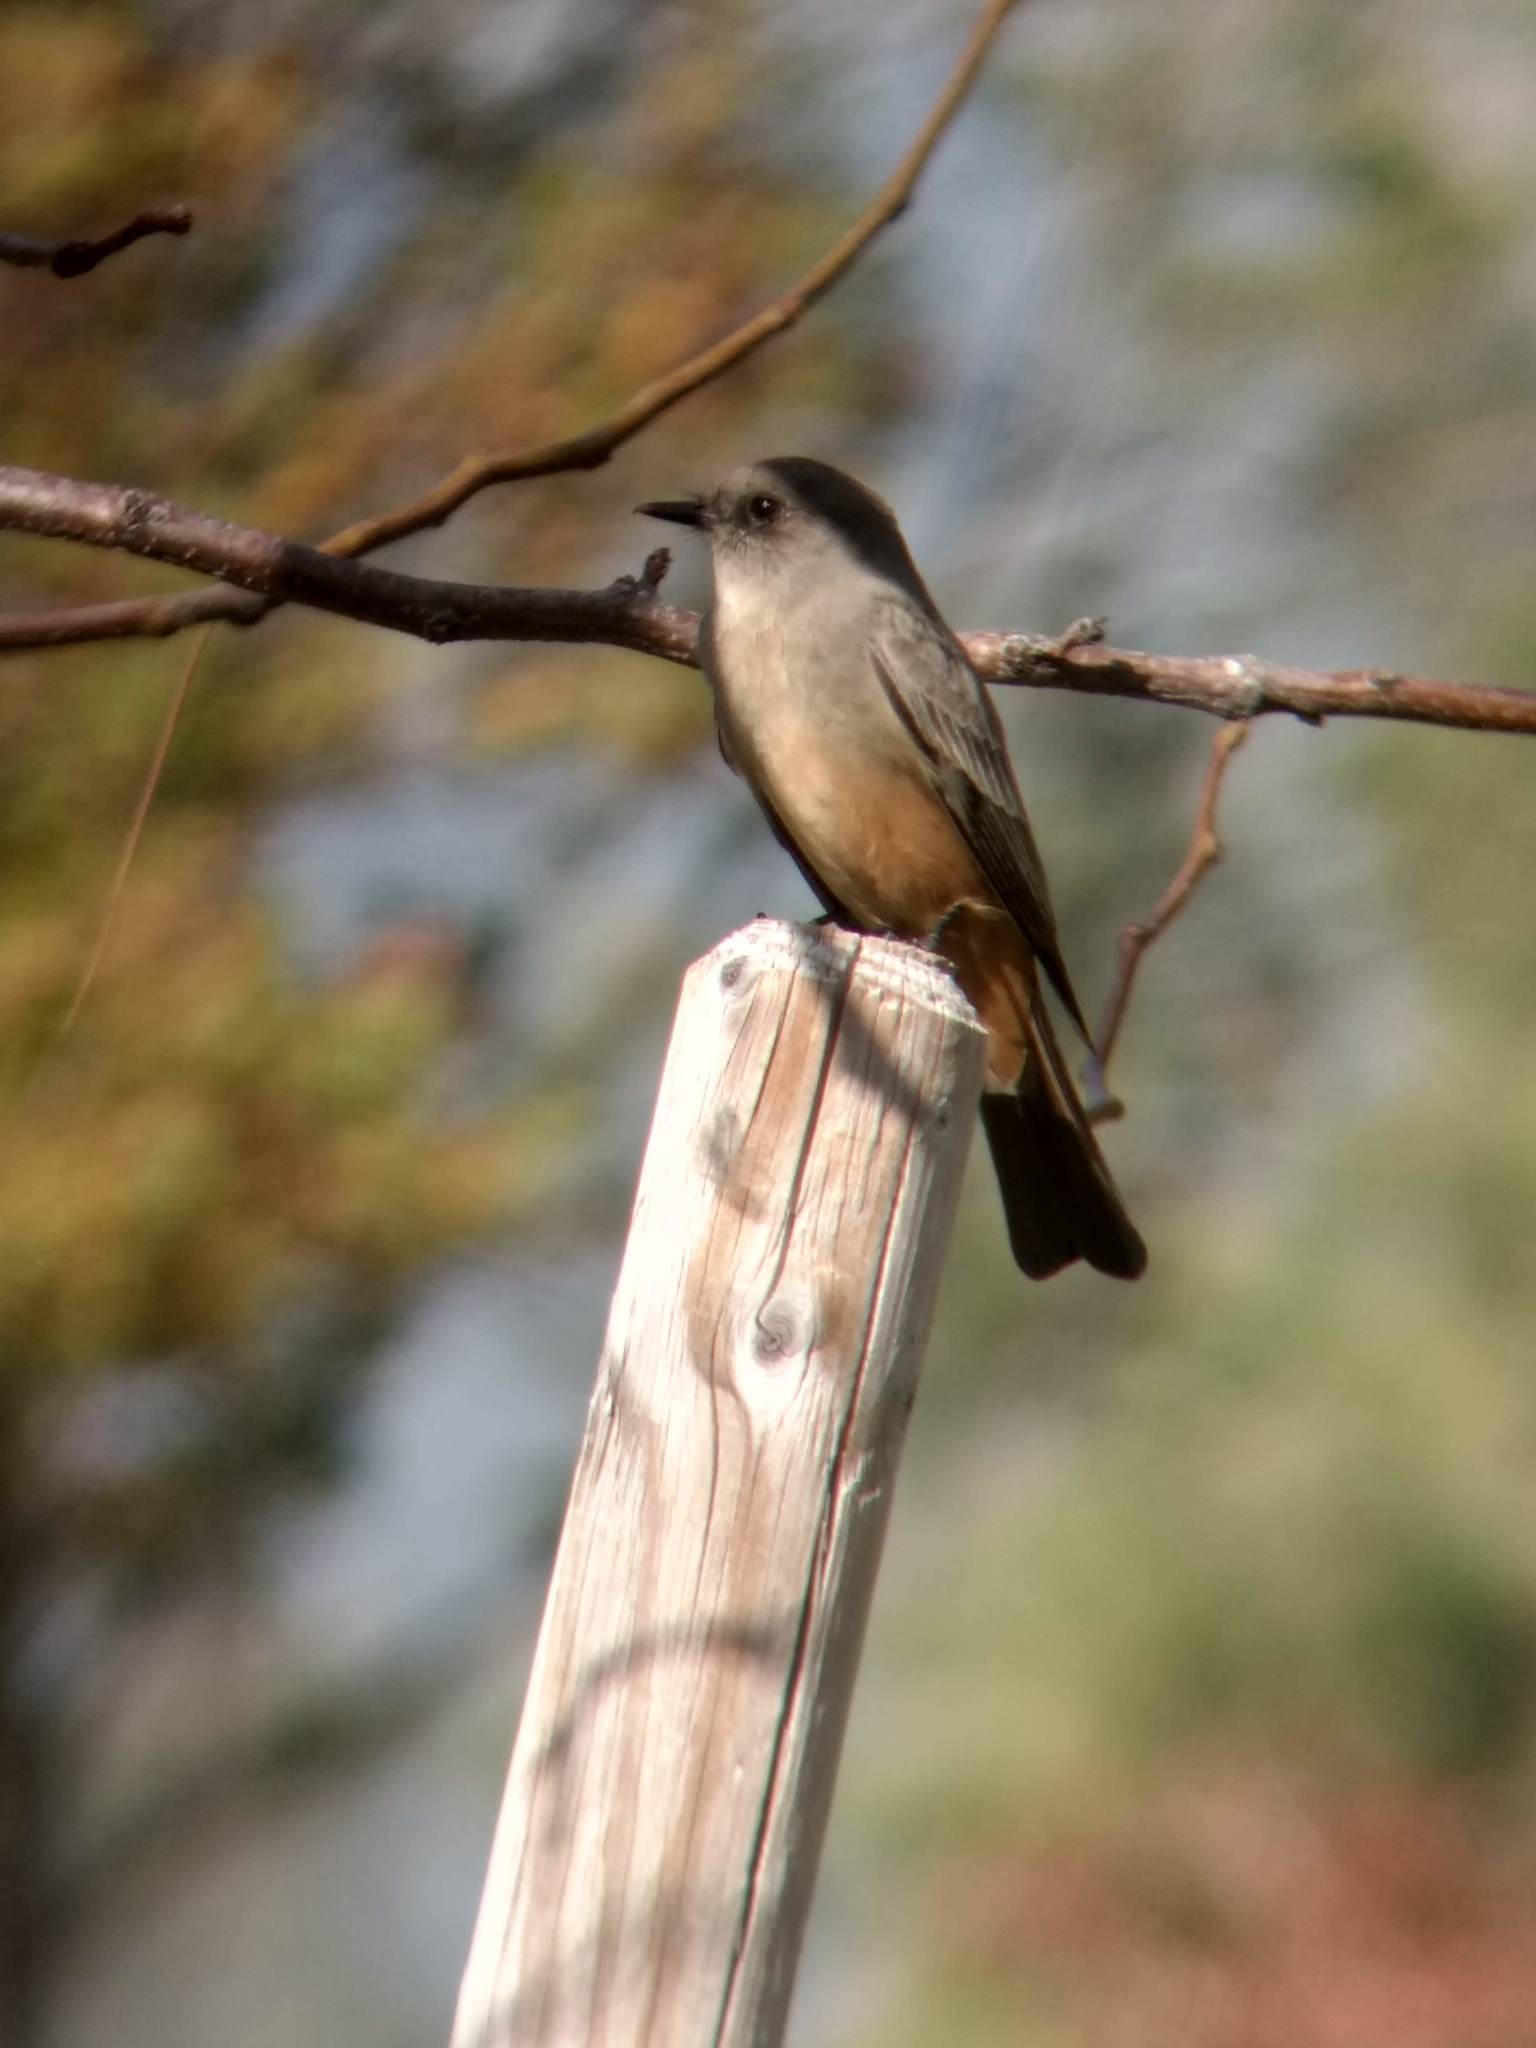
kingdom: Animalia
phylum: Chordata
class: Aves
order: Passeriformes
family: Tyrannidae
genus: Sayornis
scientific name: Sayornis saya
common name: Say's phoebe
